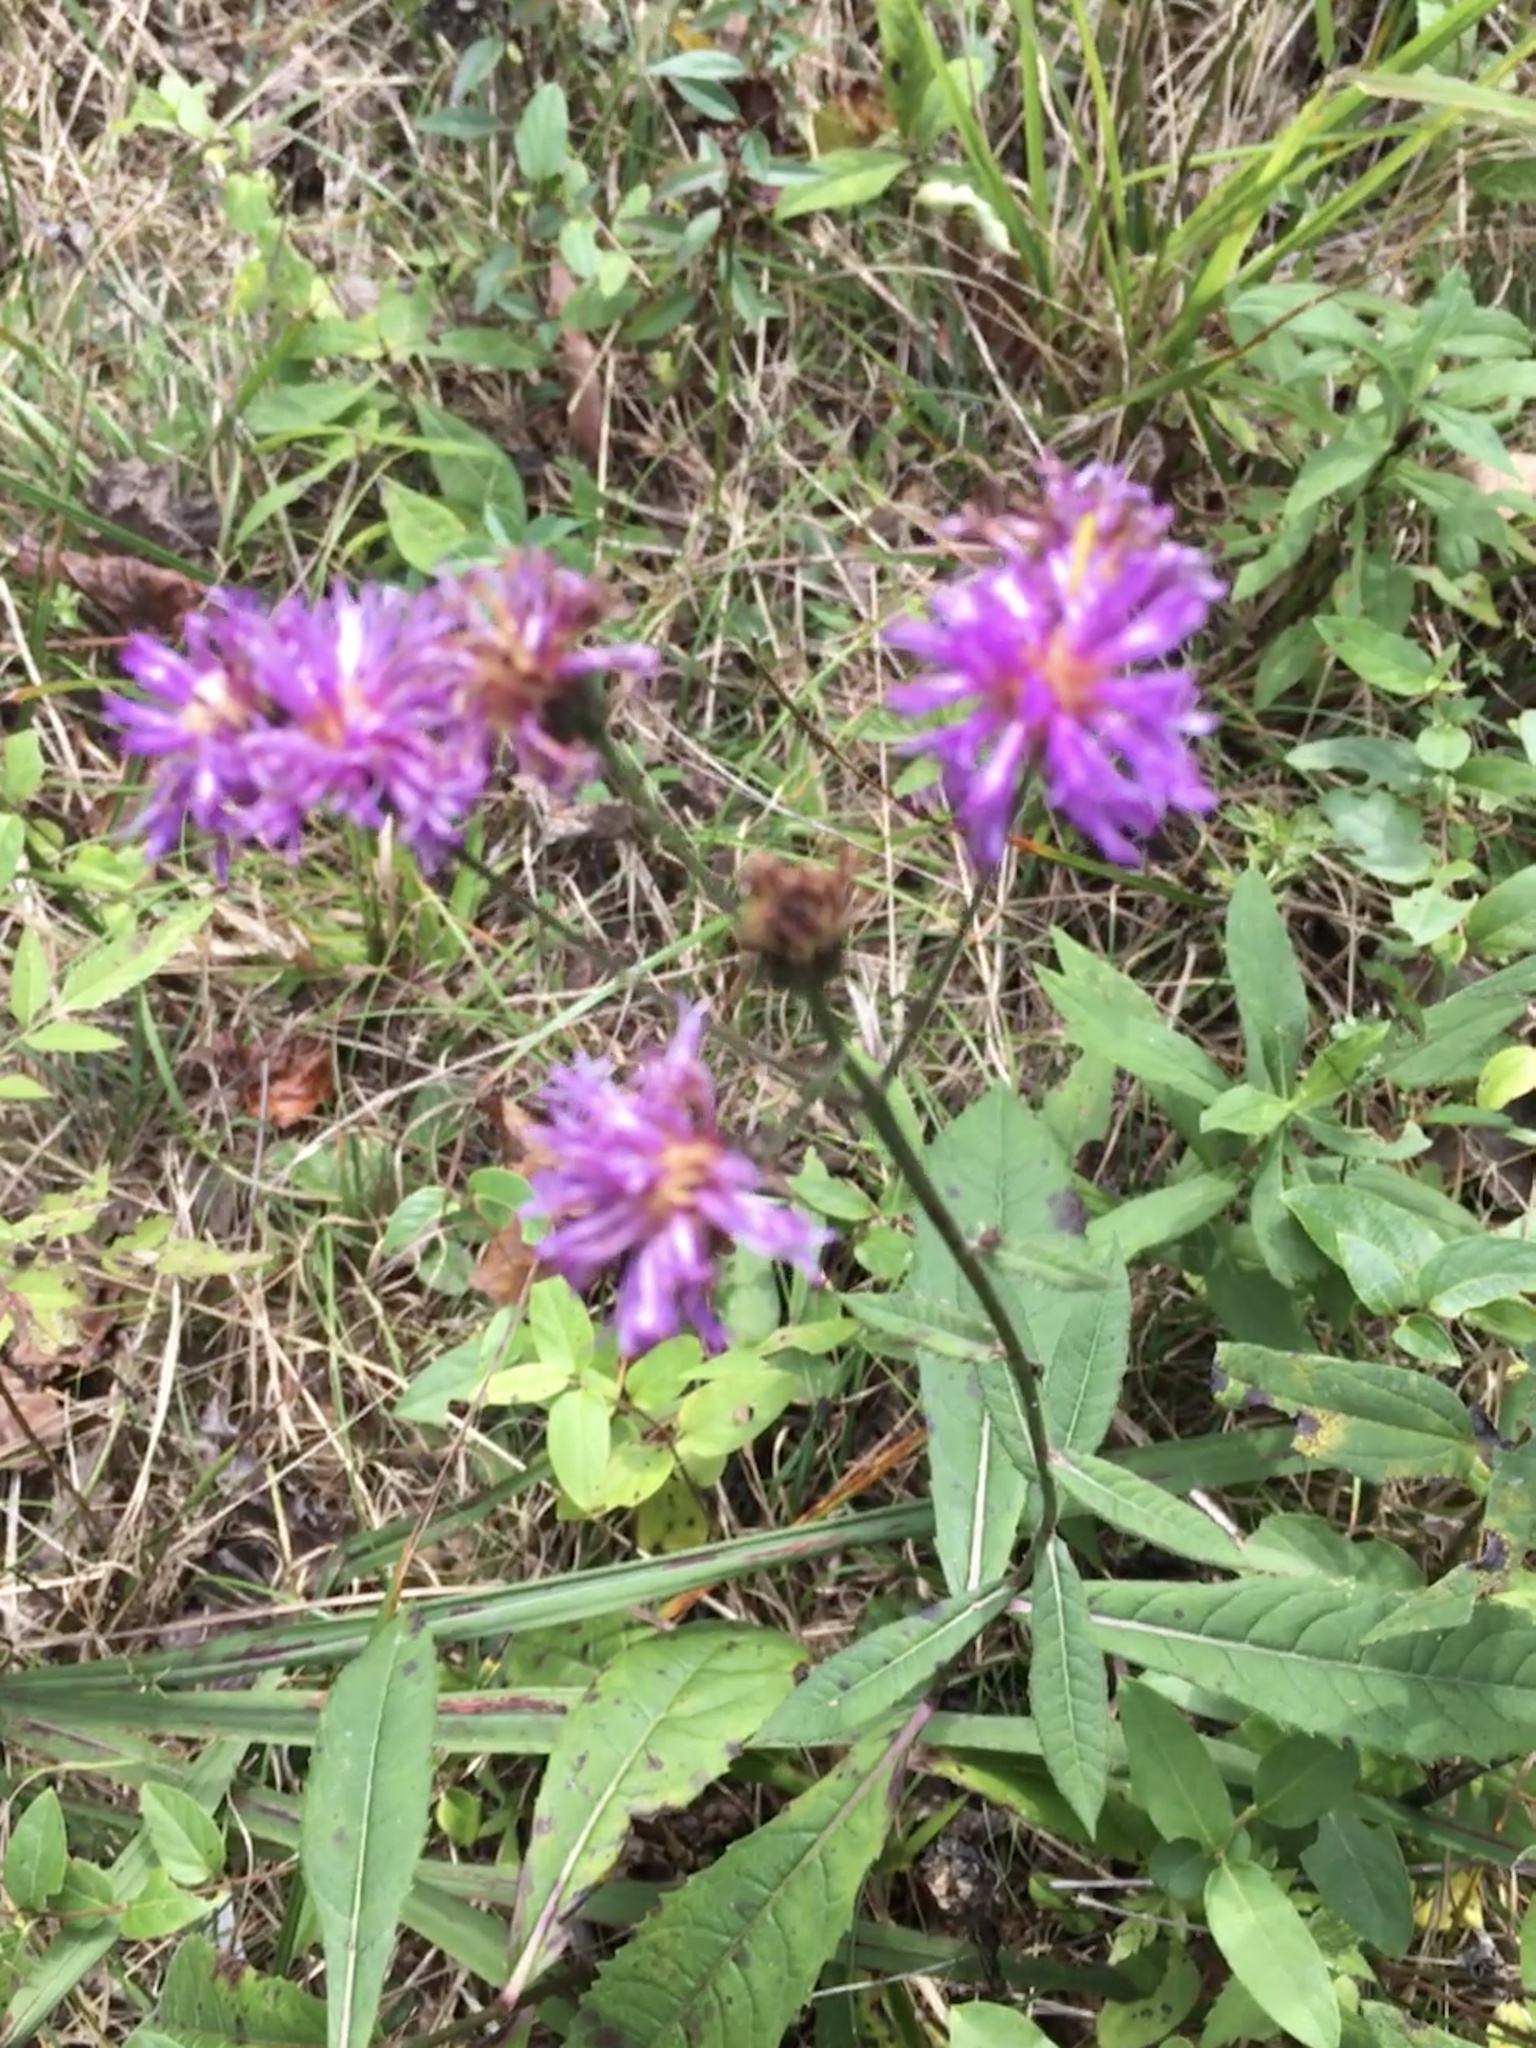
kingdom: Plantae
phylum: Tracheophyta
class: Magnoliopsida
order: Asterales
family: Asteraceae
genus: Vernonia
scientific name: Vernonia acaulis
